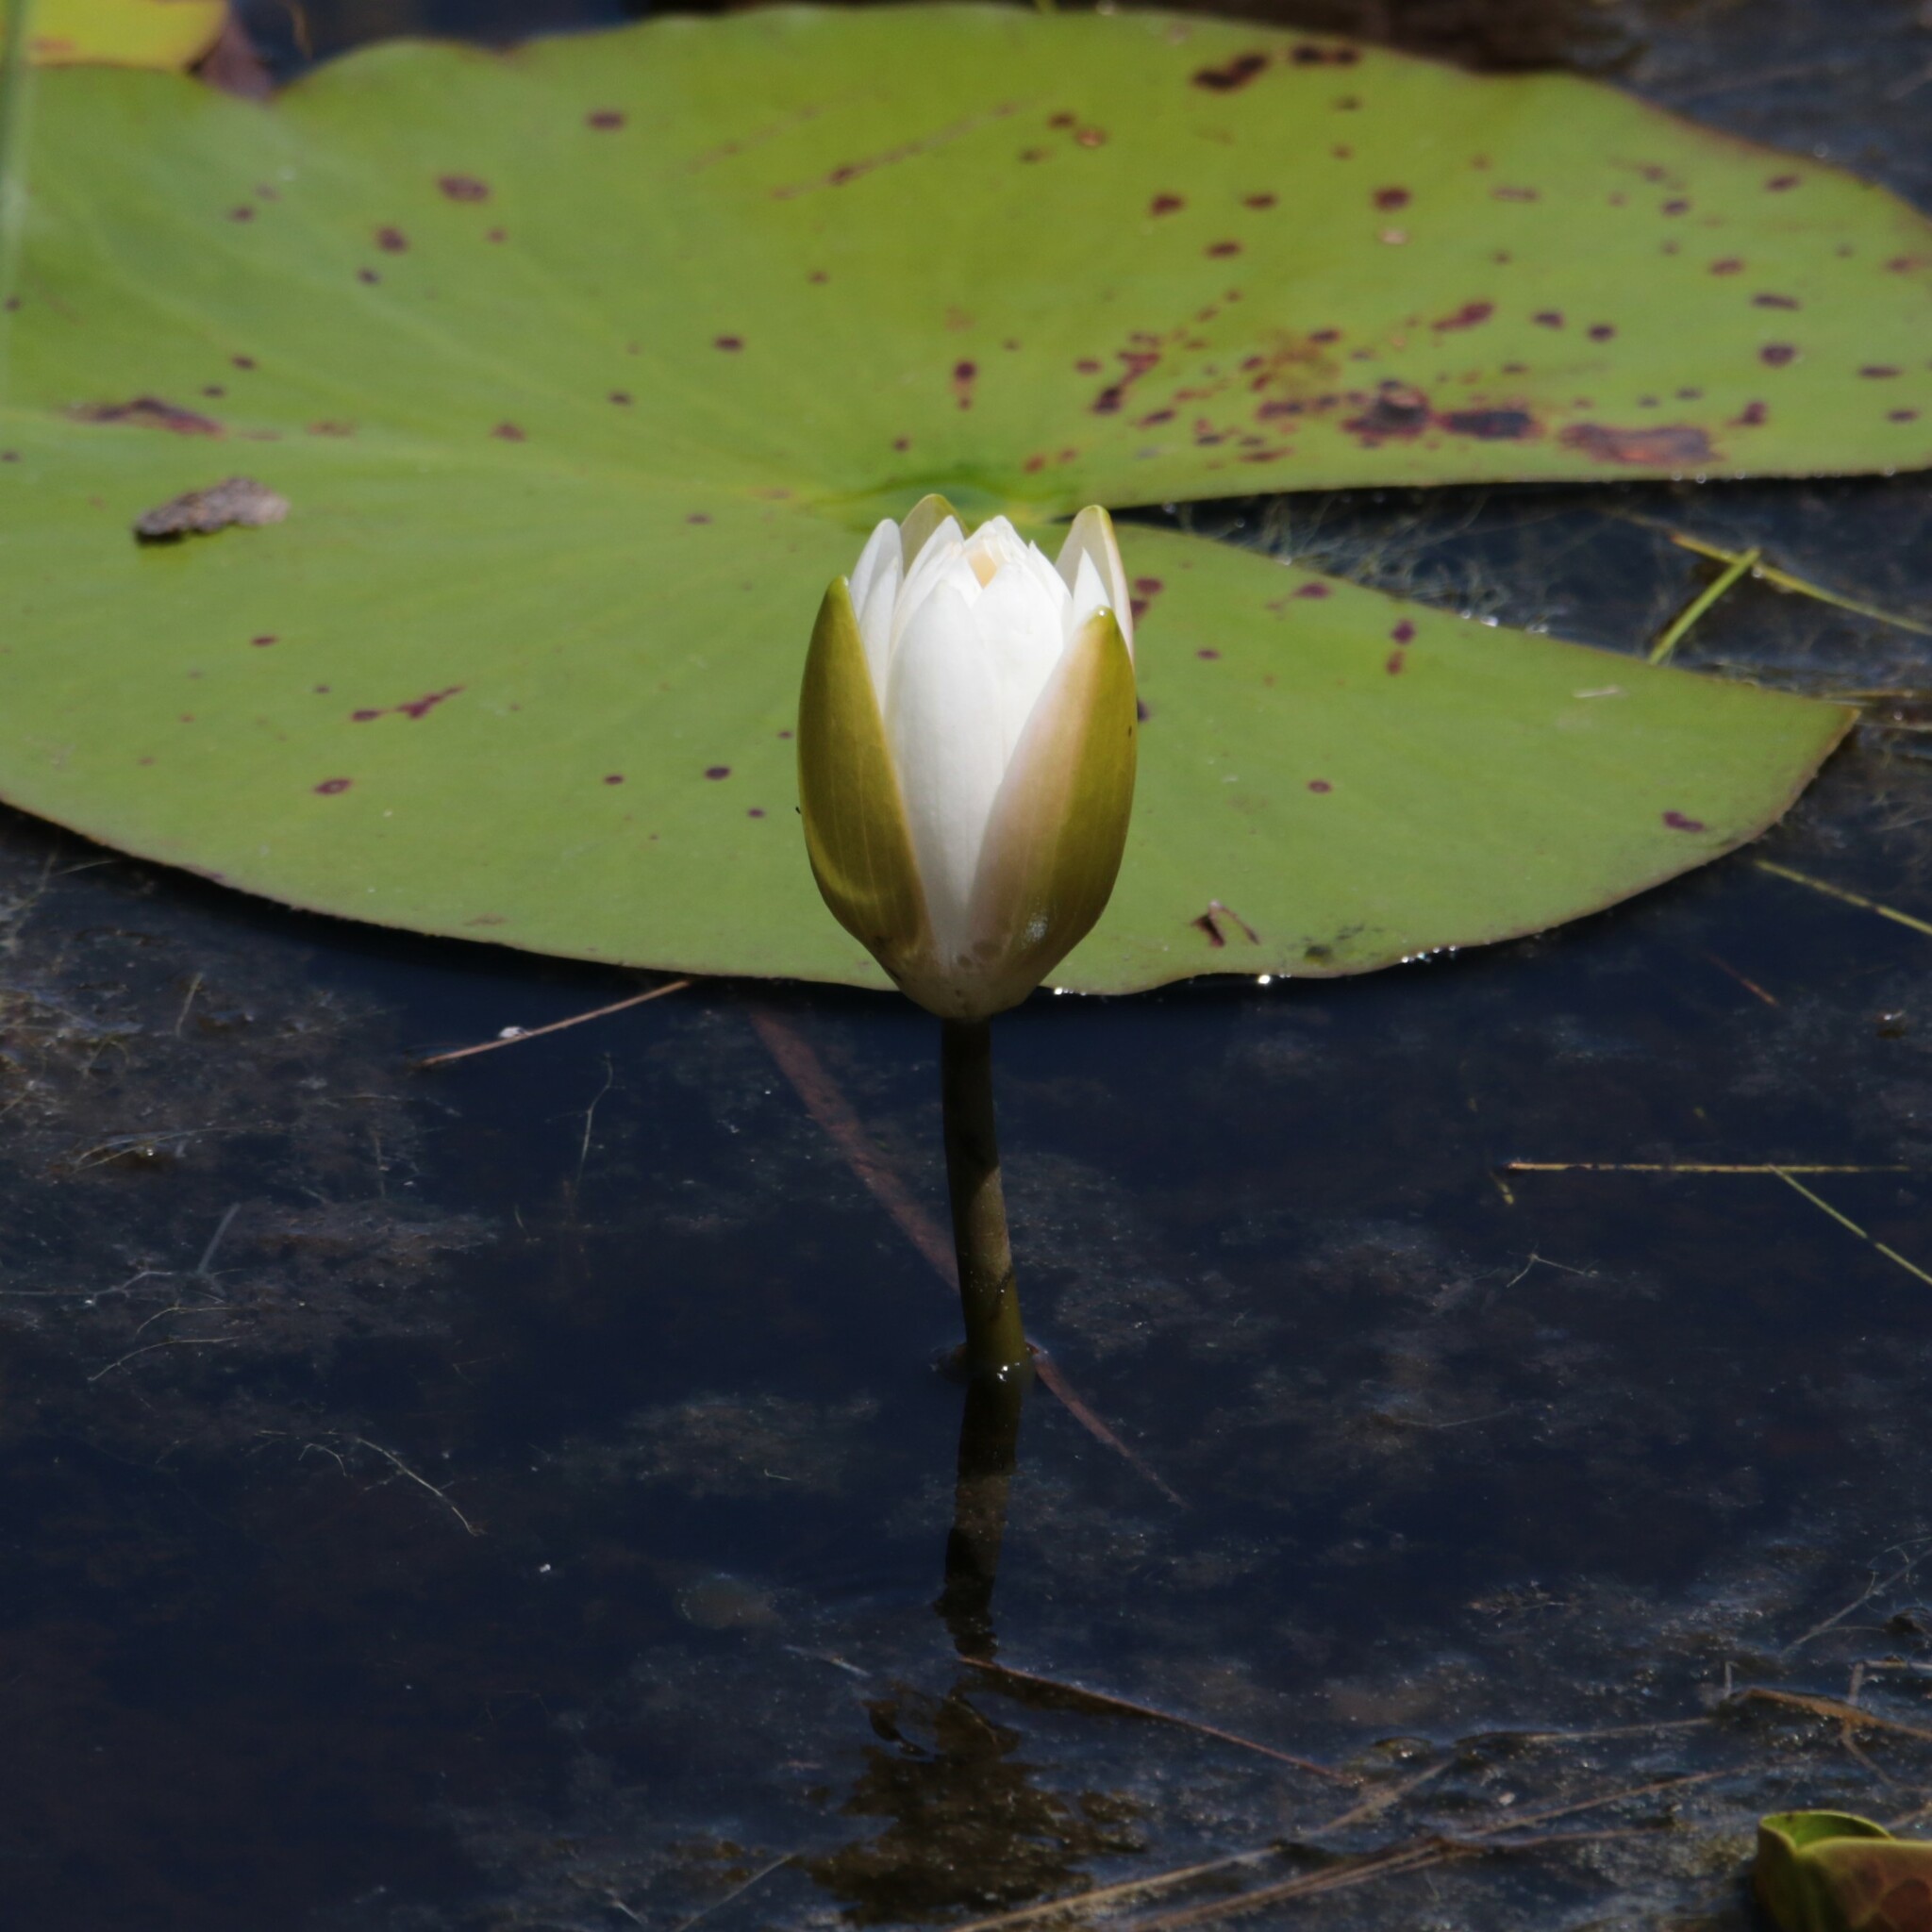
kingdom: Plantae
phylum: Tracheophyta
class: Magnoliopsida
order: Nymphaeales
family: Nymphaeaceae
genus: Nymphaea
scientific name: Nymphaea odorata
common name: Fragrant water-lily
